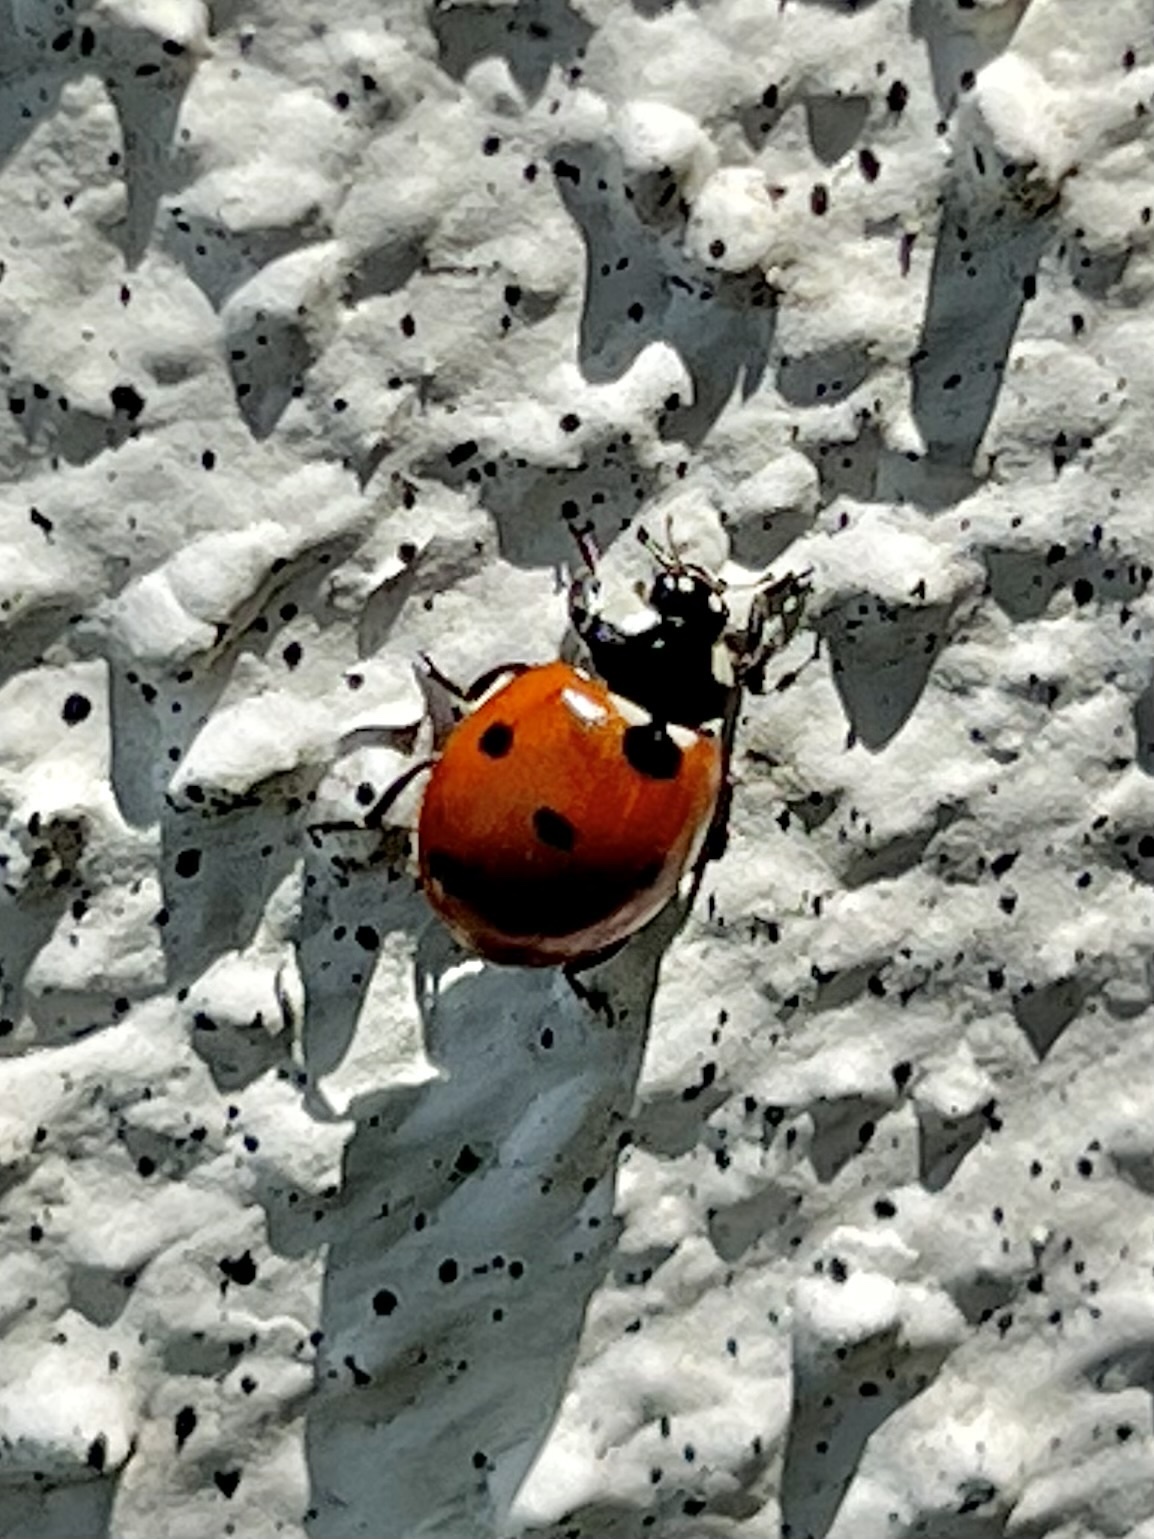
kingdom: Animalia
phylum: Arthropoda
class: Insecta
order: Coleoptera
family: Coccinellidae
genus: Coccinella
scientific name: Coccinella septempunctata
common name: Sevenspotted lady beetle
